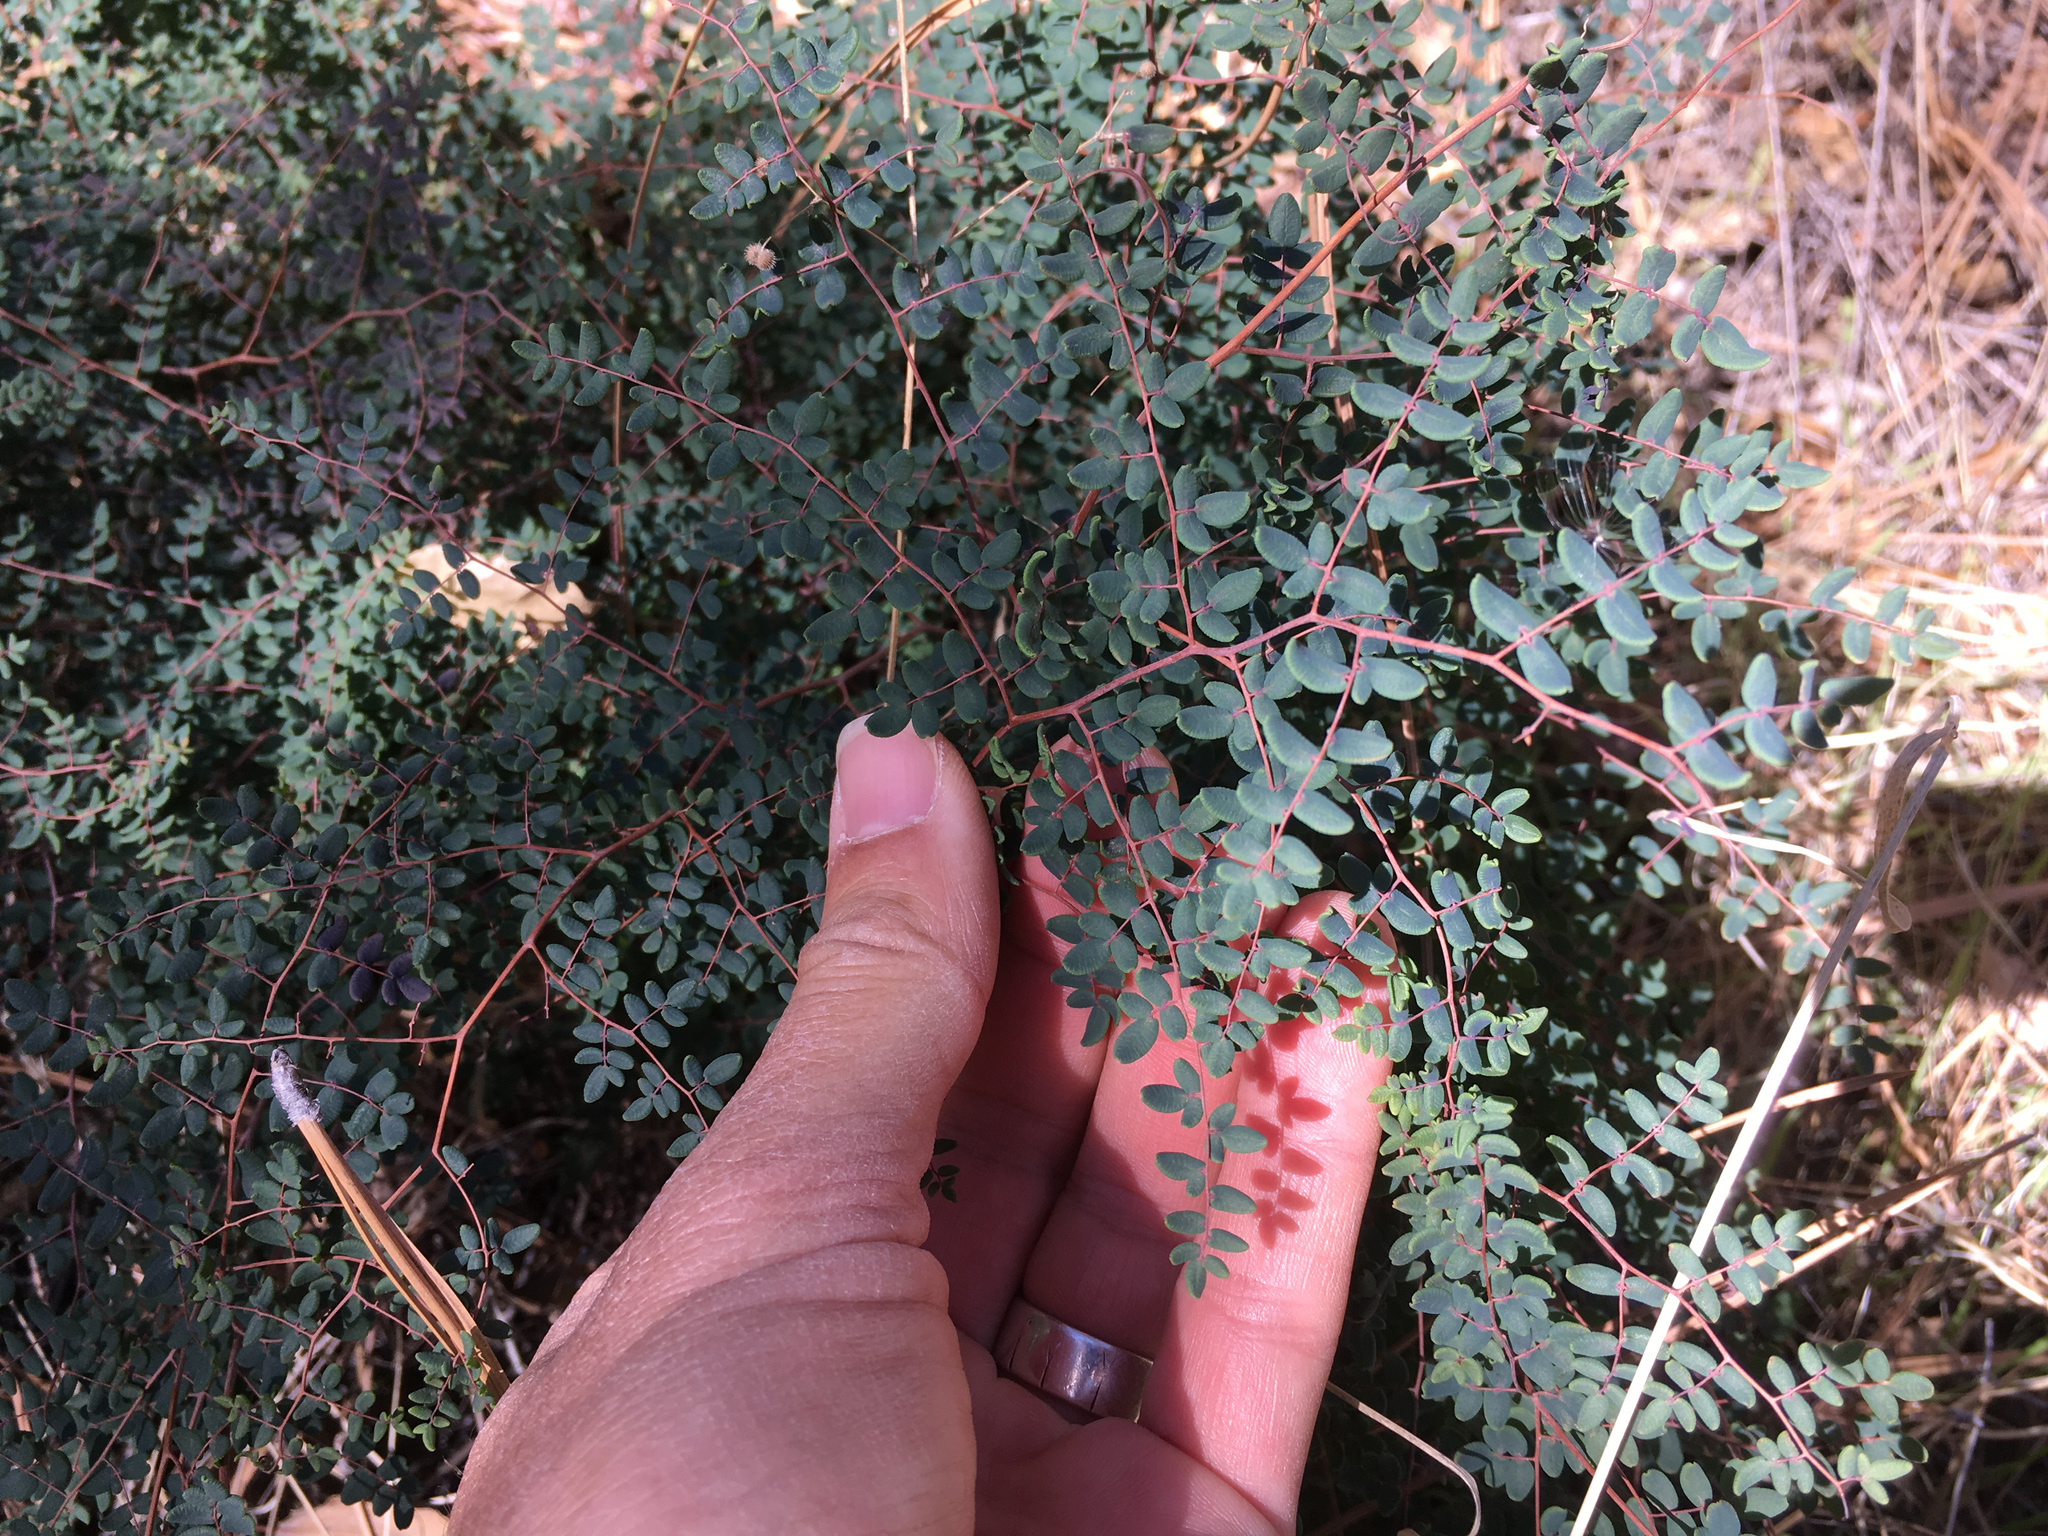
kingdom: Plantae
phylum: Tracheophyta
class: Polypodiopsida
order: Polypodiales
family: Pteridaceae
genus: Pellaea
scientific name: Pellaea andromedifolia
